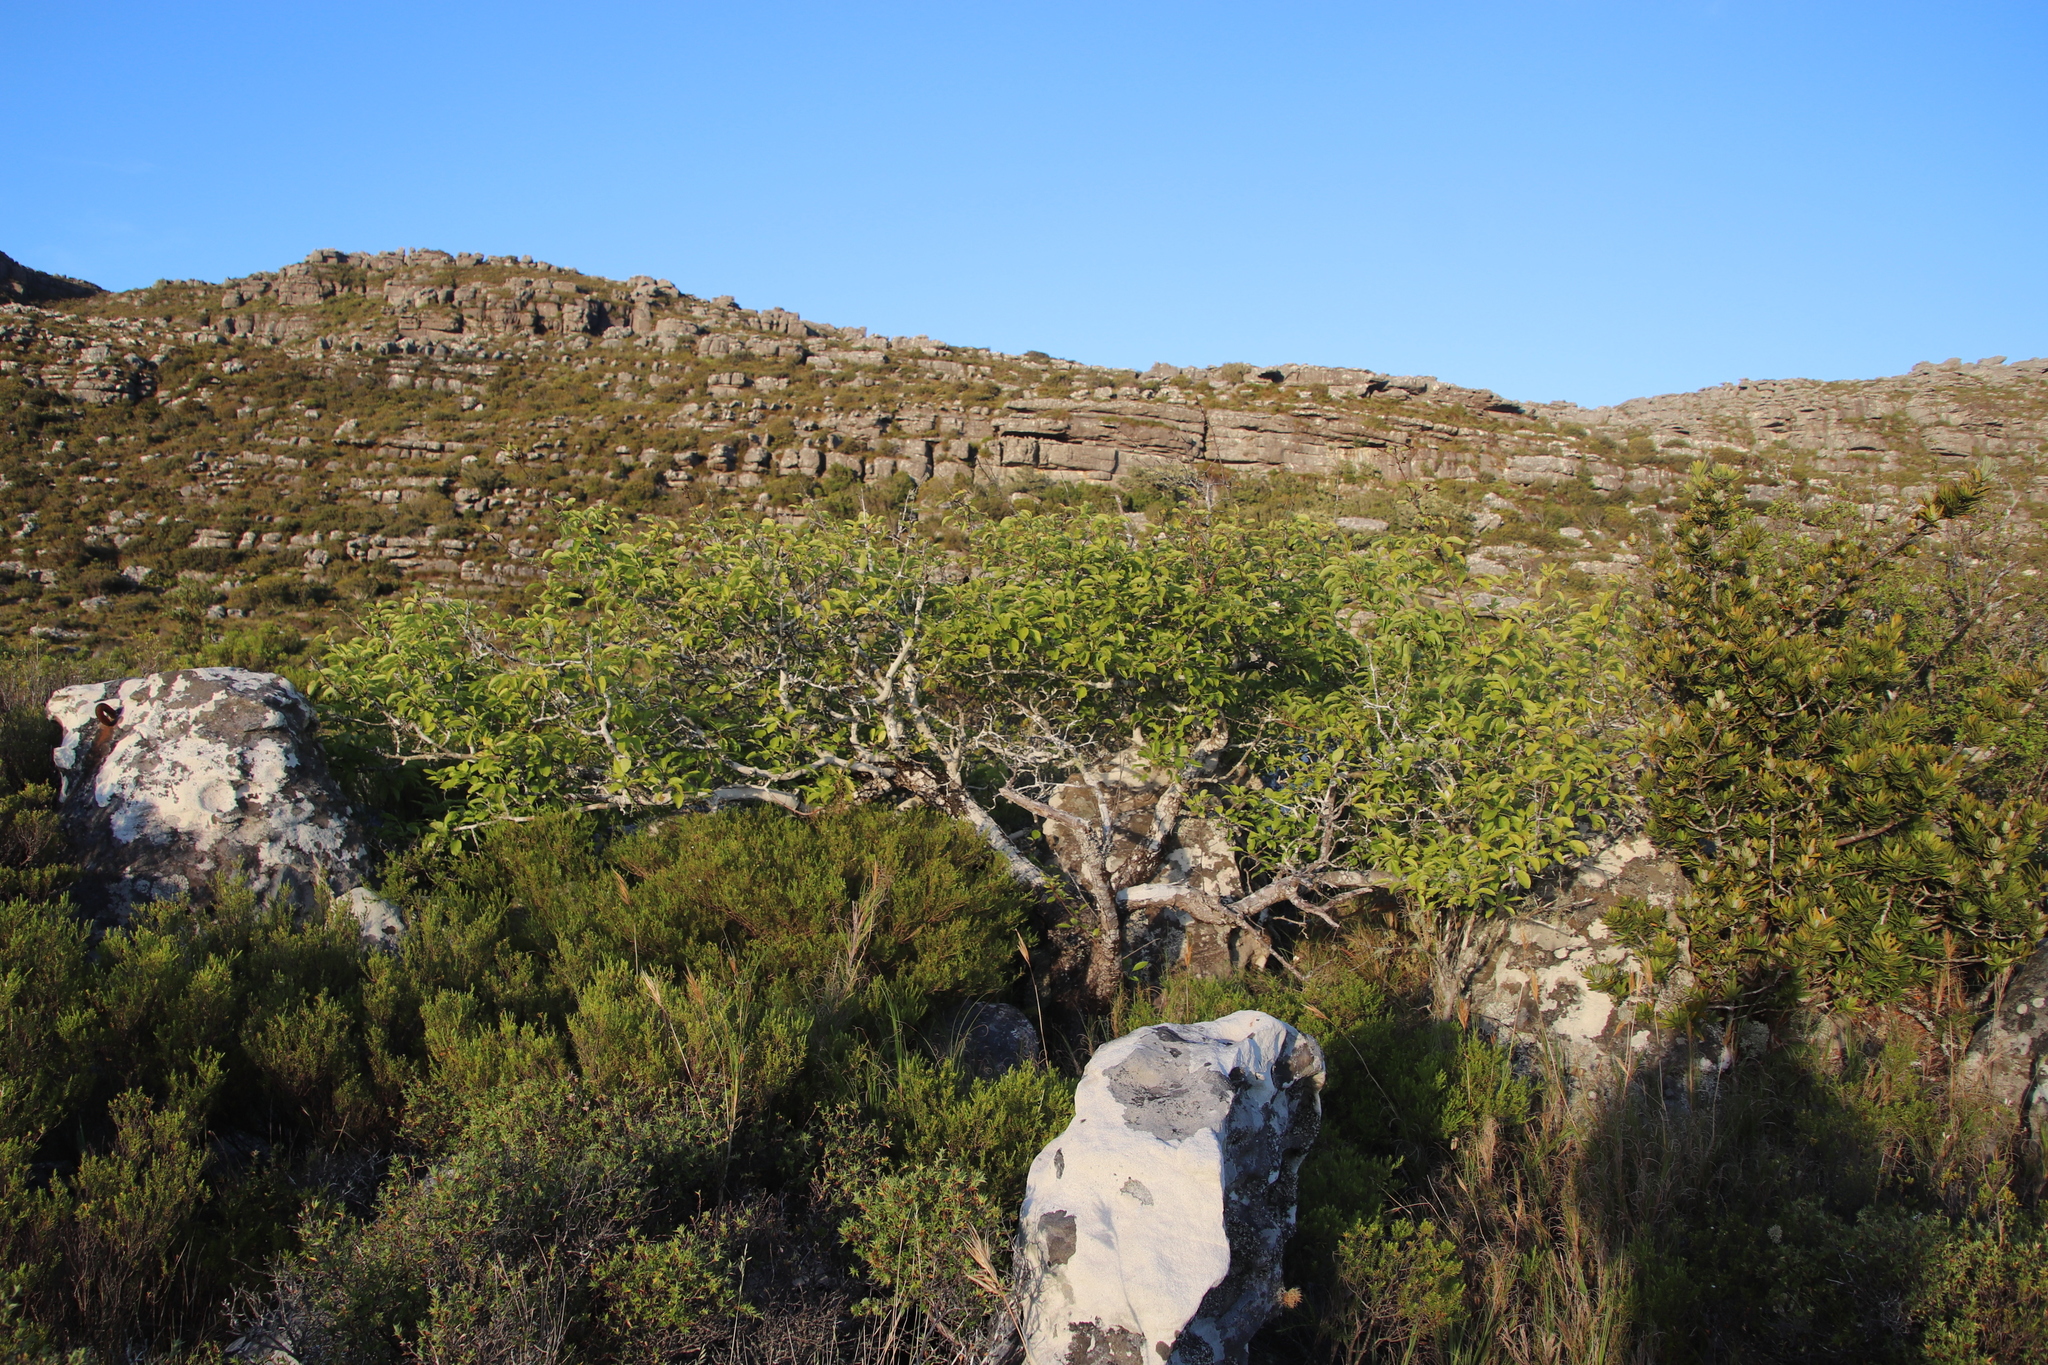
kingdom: Plantae
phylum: Tracheophyta
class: Magnoliopsida
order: Rosales
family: Rosaceae
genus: Malus
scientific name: Malus domestica
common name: Apple
